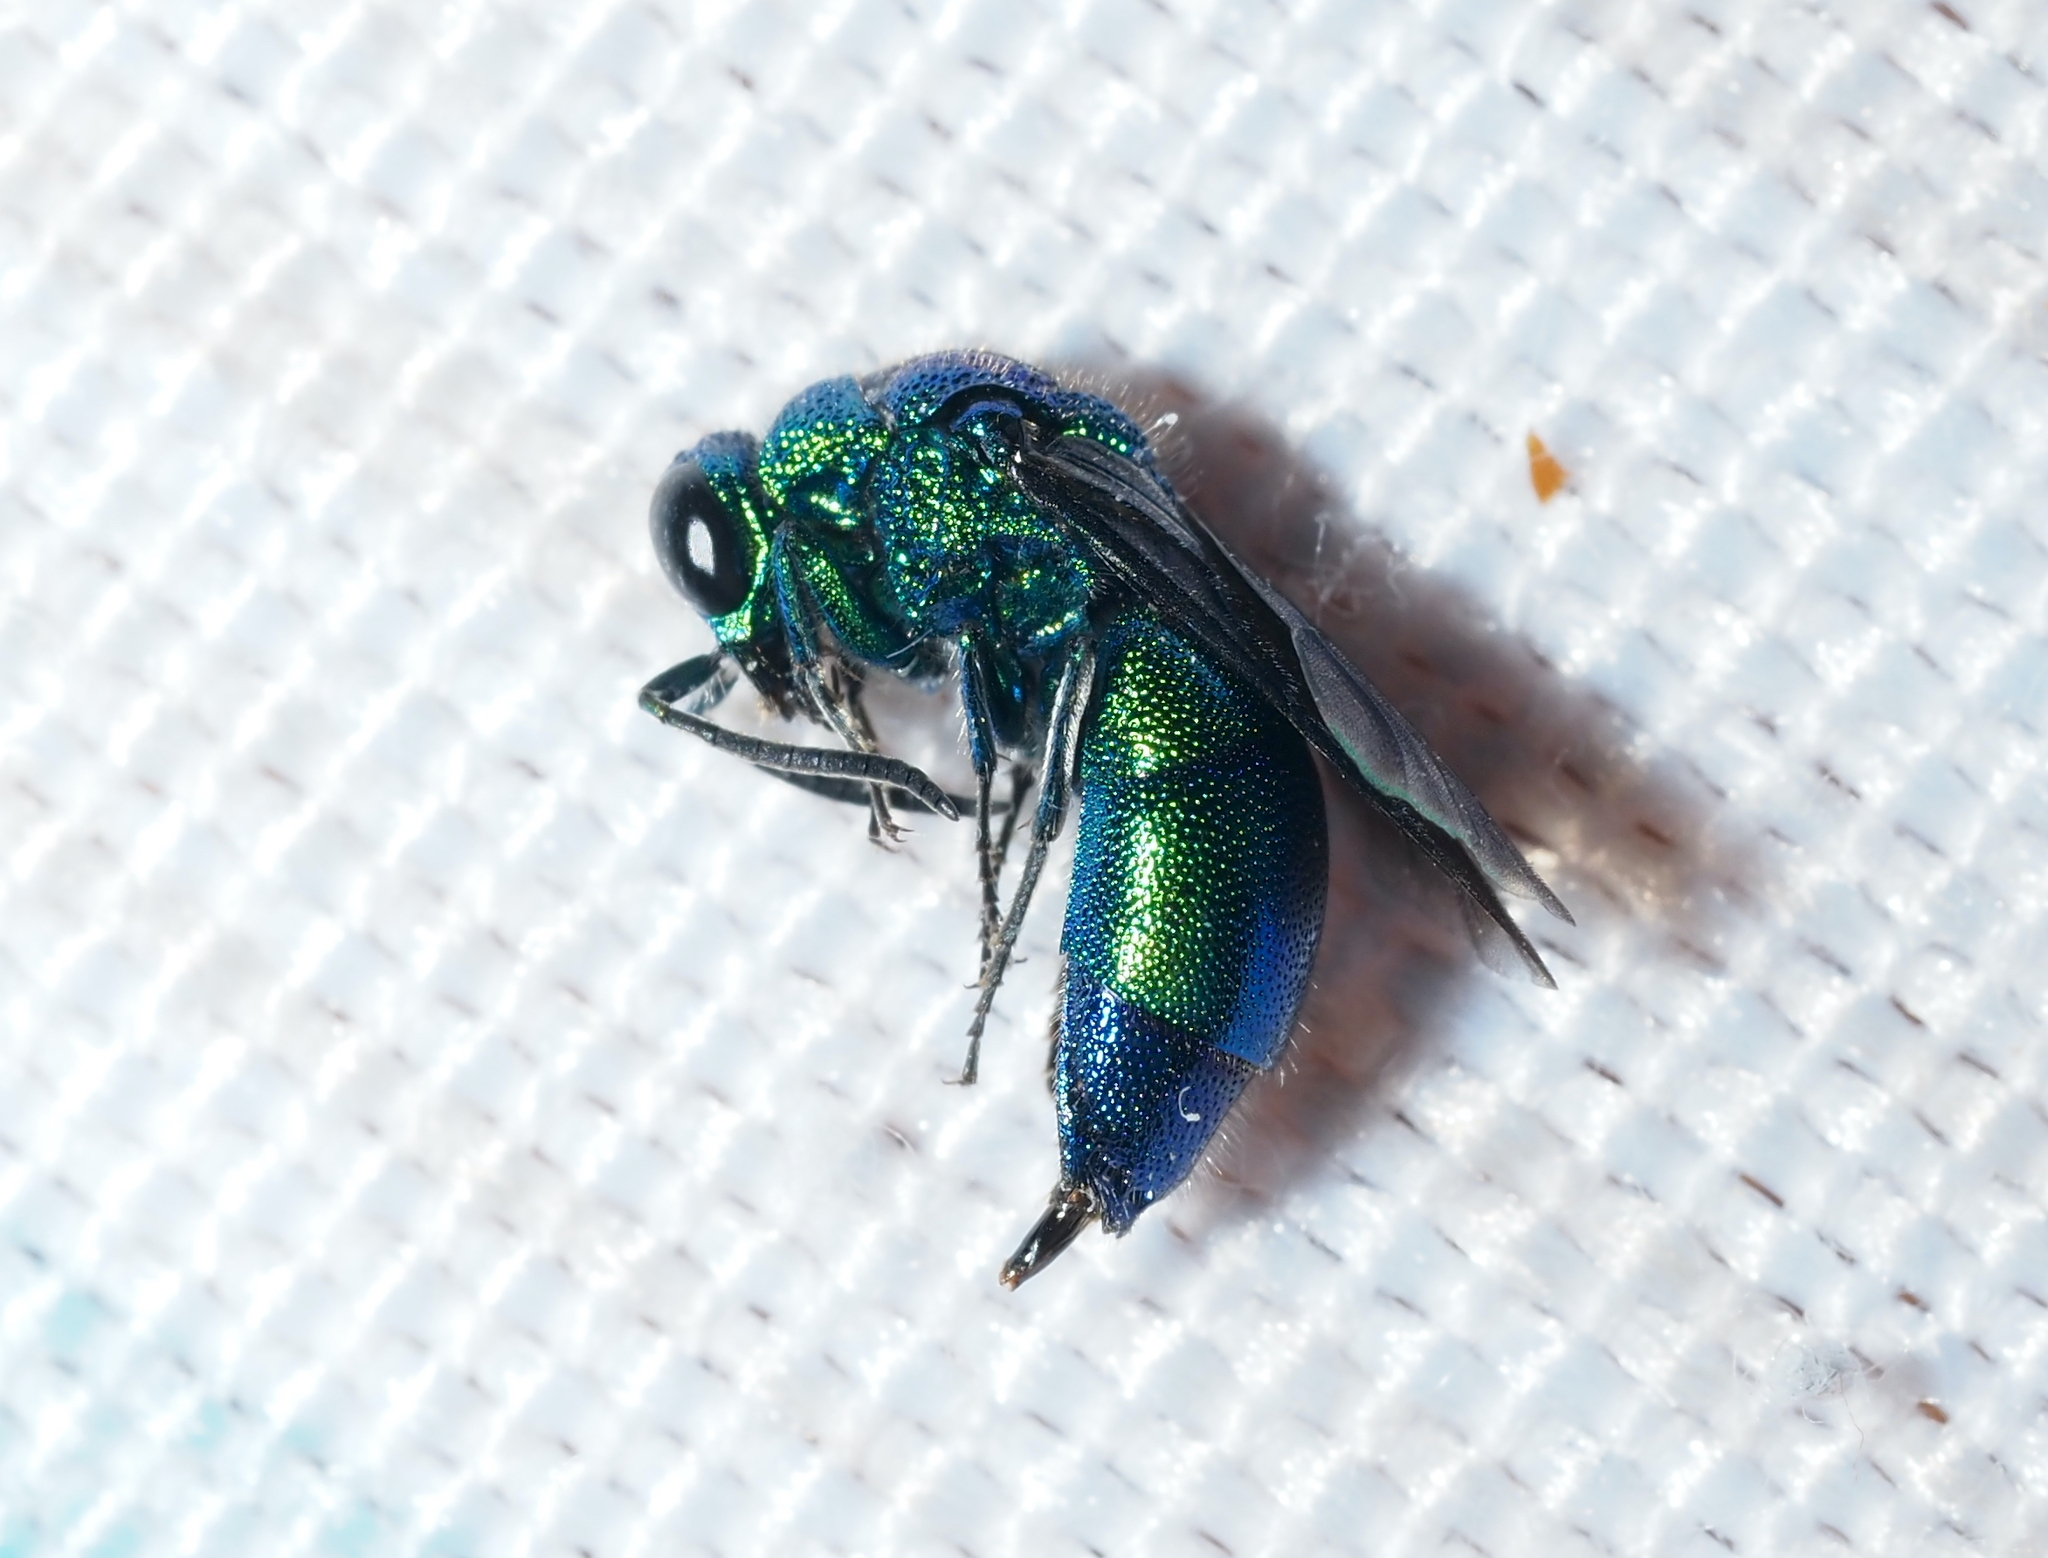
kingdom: Animalia
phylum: Arthropoda
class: Insecta
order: Hymenoptera
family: Chrysididae
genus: Chrysis
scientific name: Chrysis angolensis
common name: Cuckoo wasp
